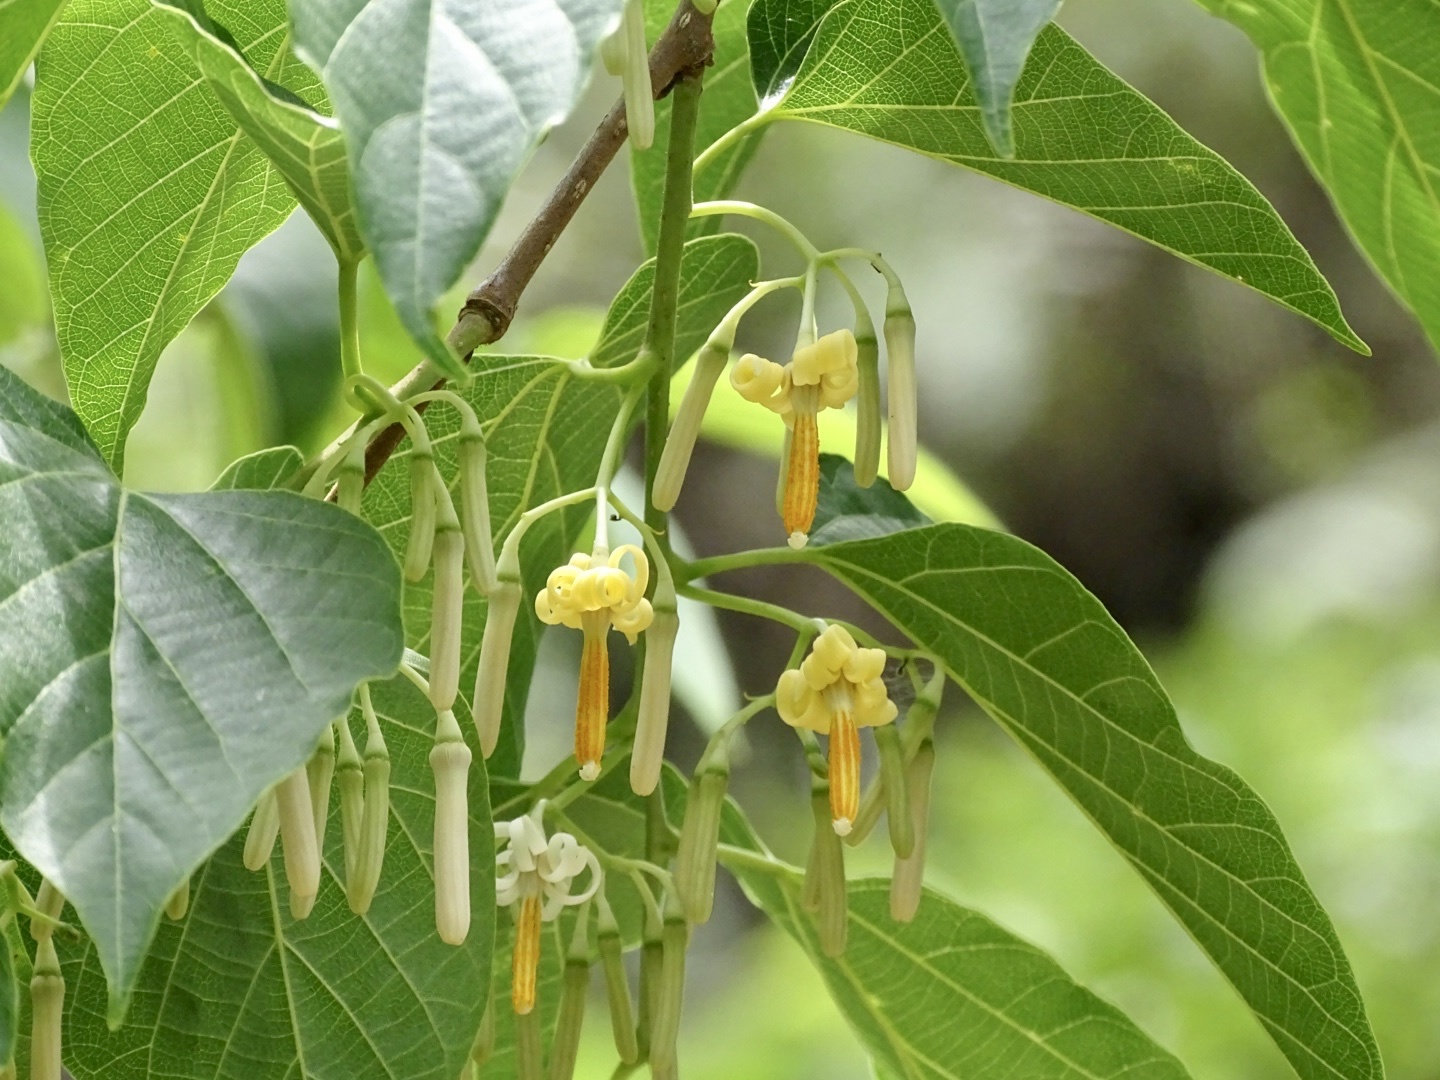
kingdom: Plantae
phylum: Tracheophyta
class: Magnoliopsida
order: Cornales
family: Cornaceae
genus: Alangium
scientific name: Alangium chinense
